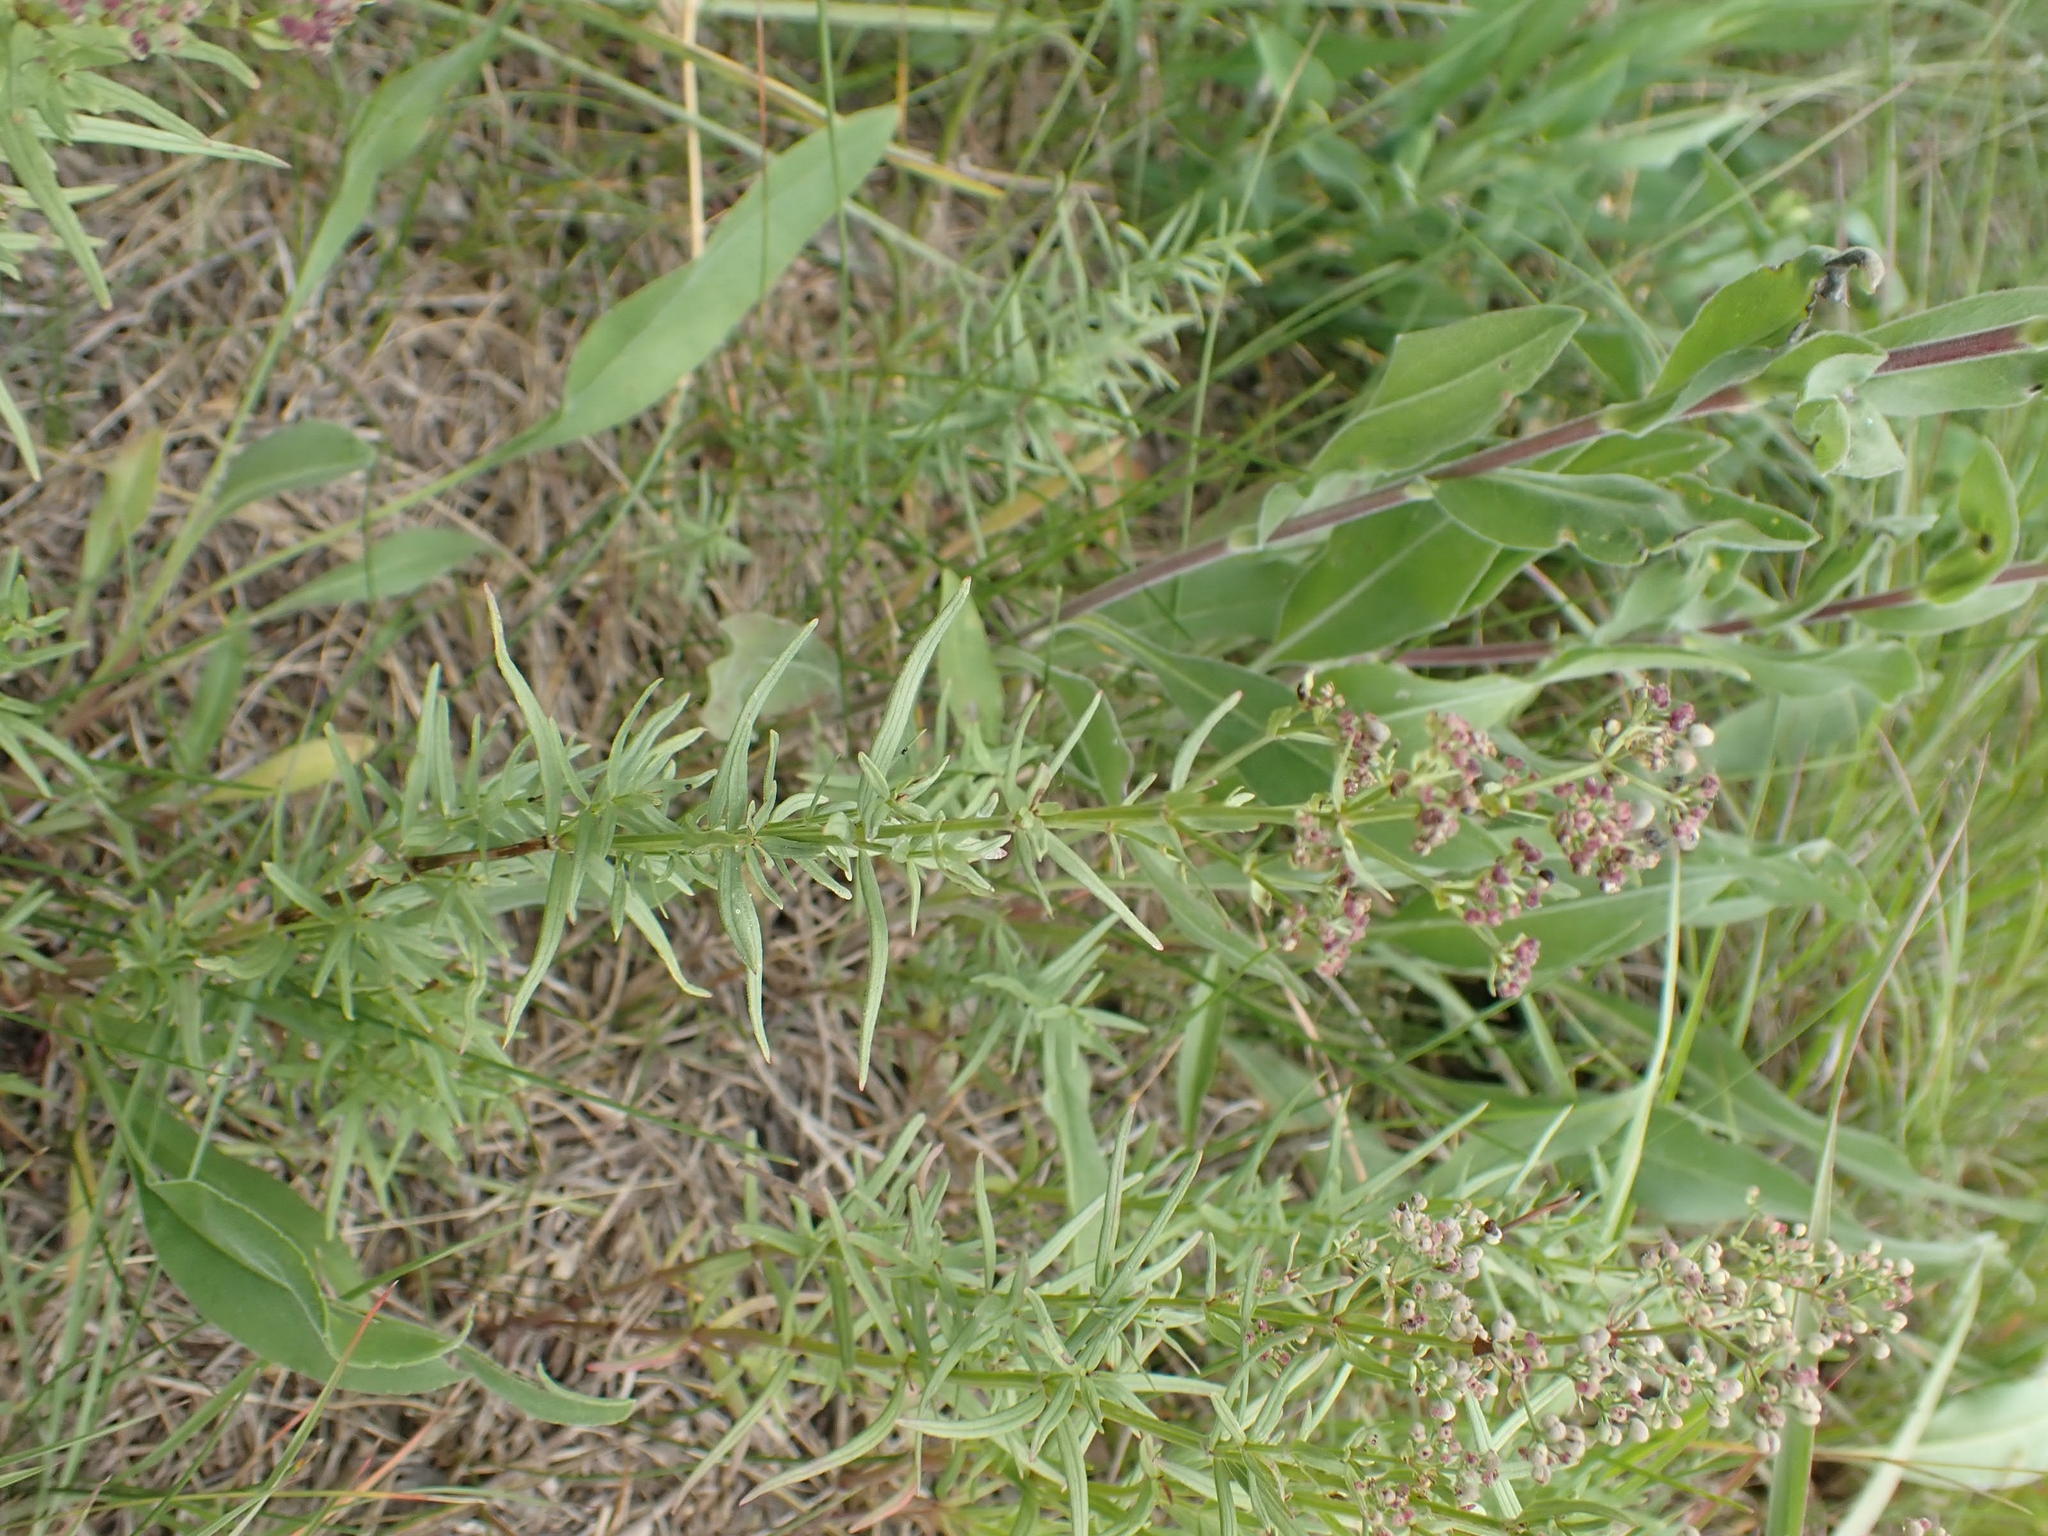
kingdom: Plantae
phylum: Tracheophyta
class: Magnoliopsida
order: Gentianales
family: Rubiaceae
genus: Galium
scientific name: Galium boreale
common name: Northern bedstraw
